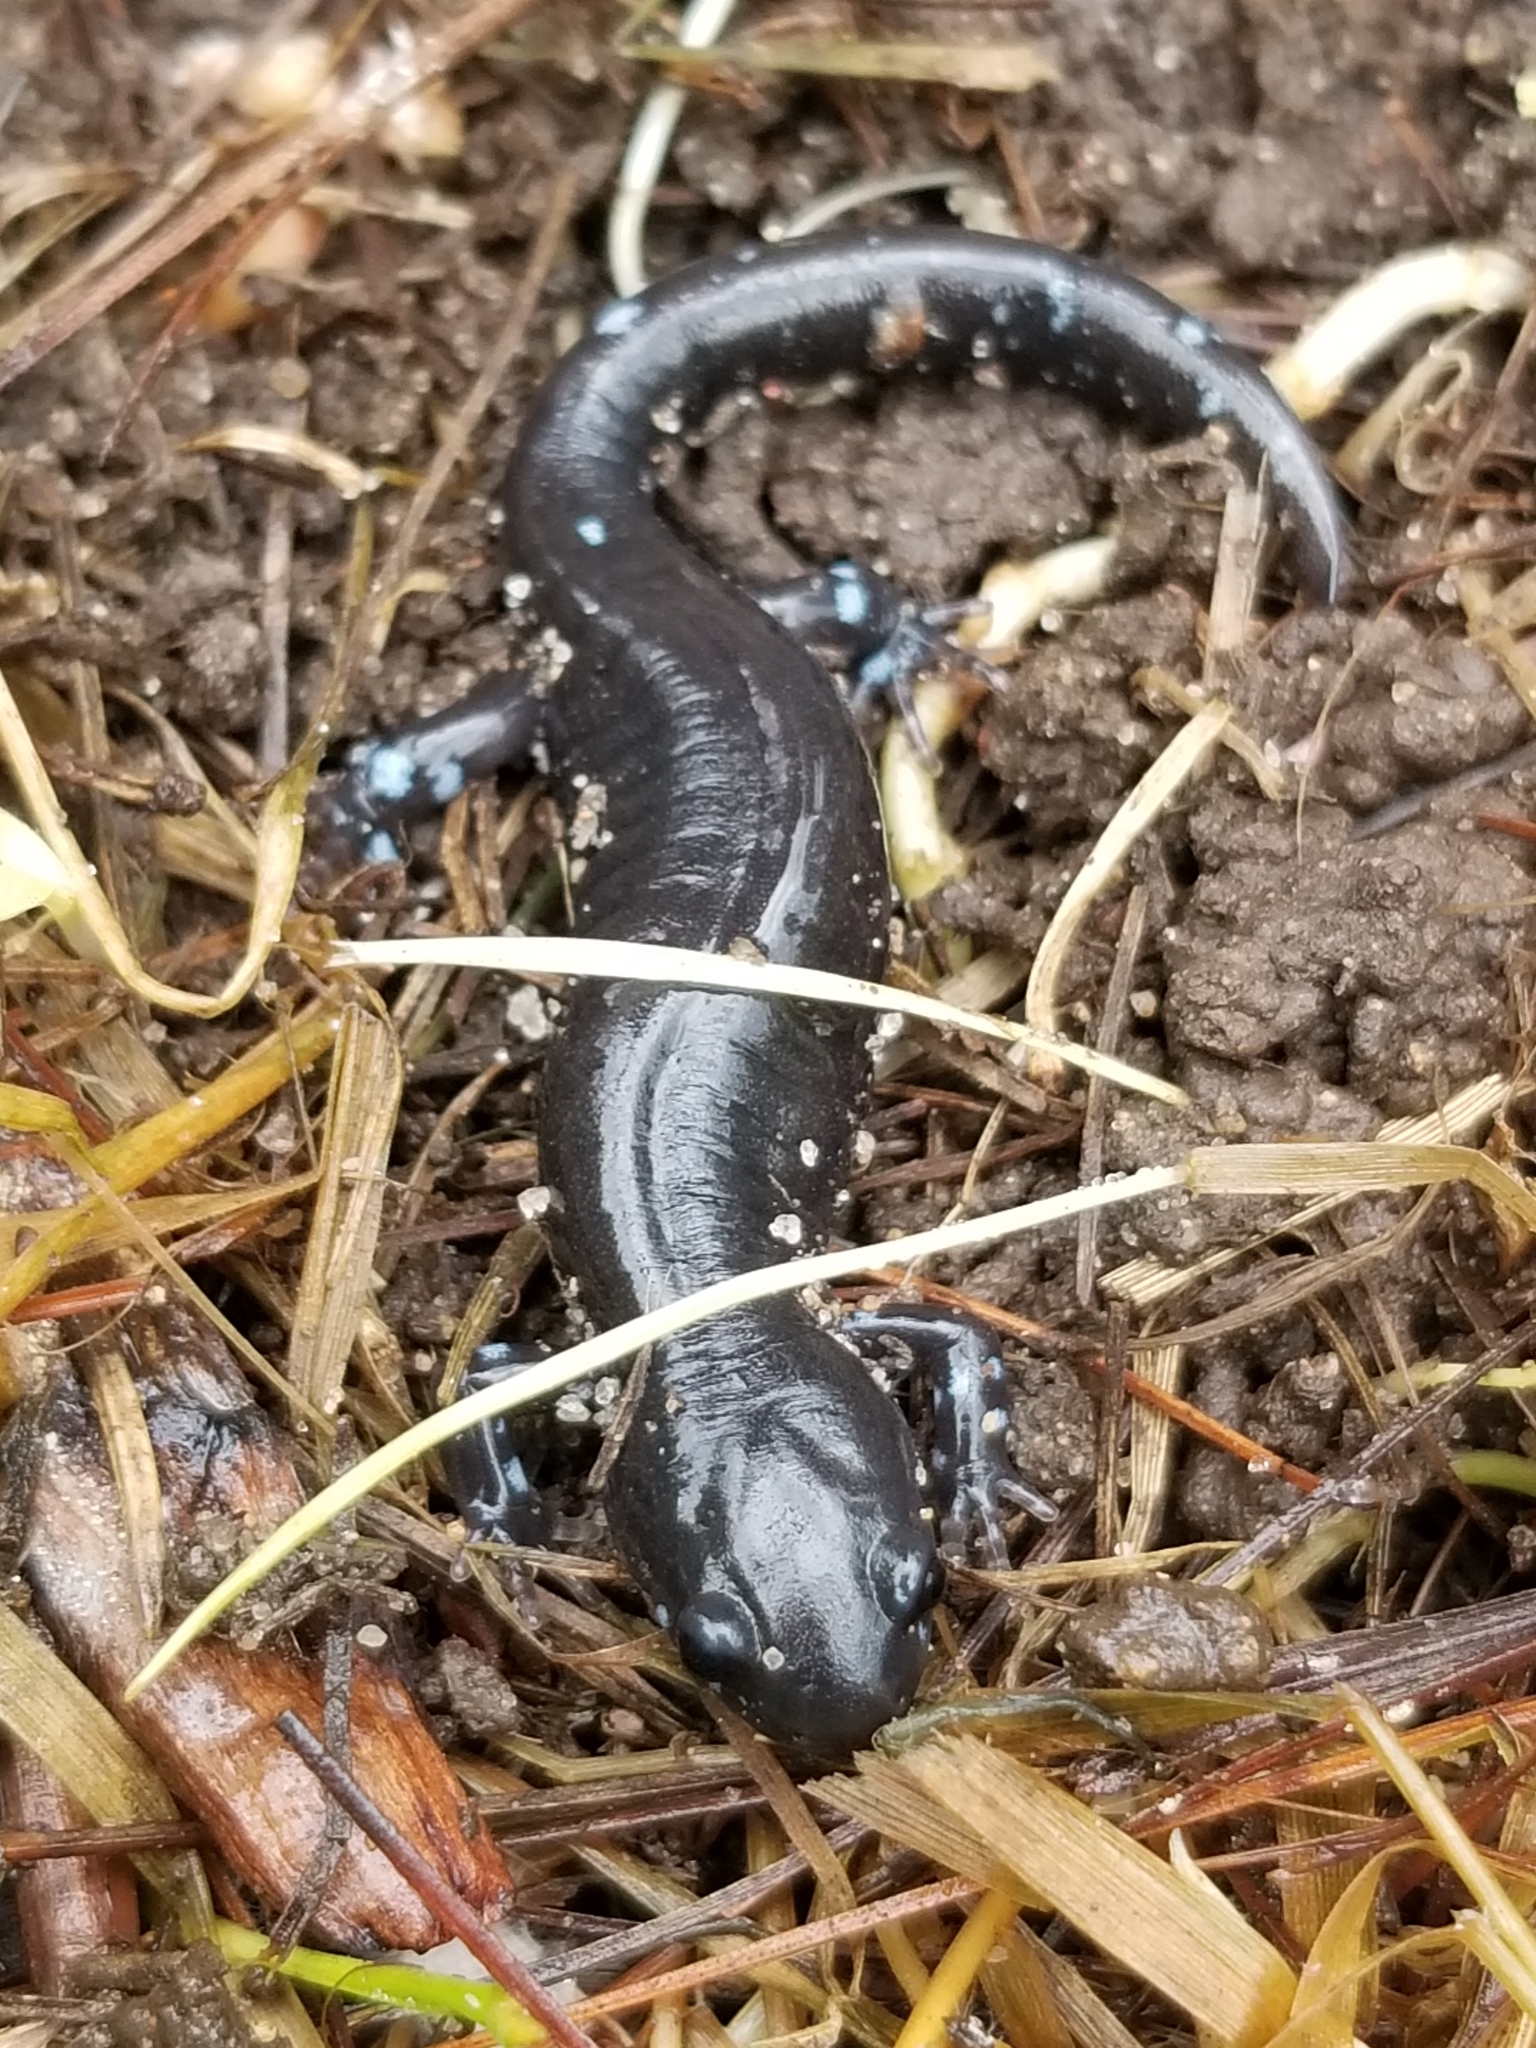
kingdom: Animalia
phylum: Chordata
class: Amphibia
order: Caudata
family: Ambystomatidae
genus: Ambystoma
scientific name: Ambystoma laterale
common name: Blue-spotted salamander
